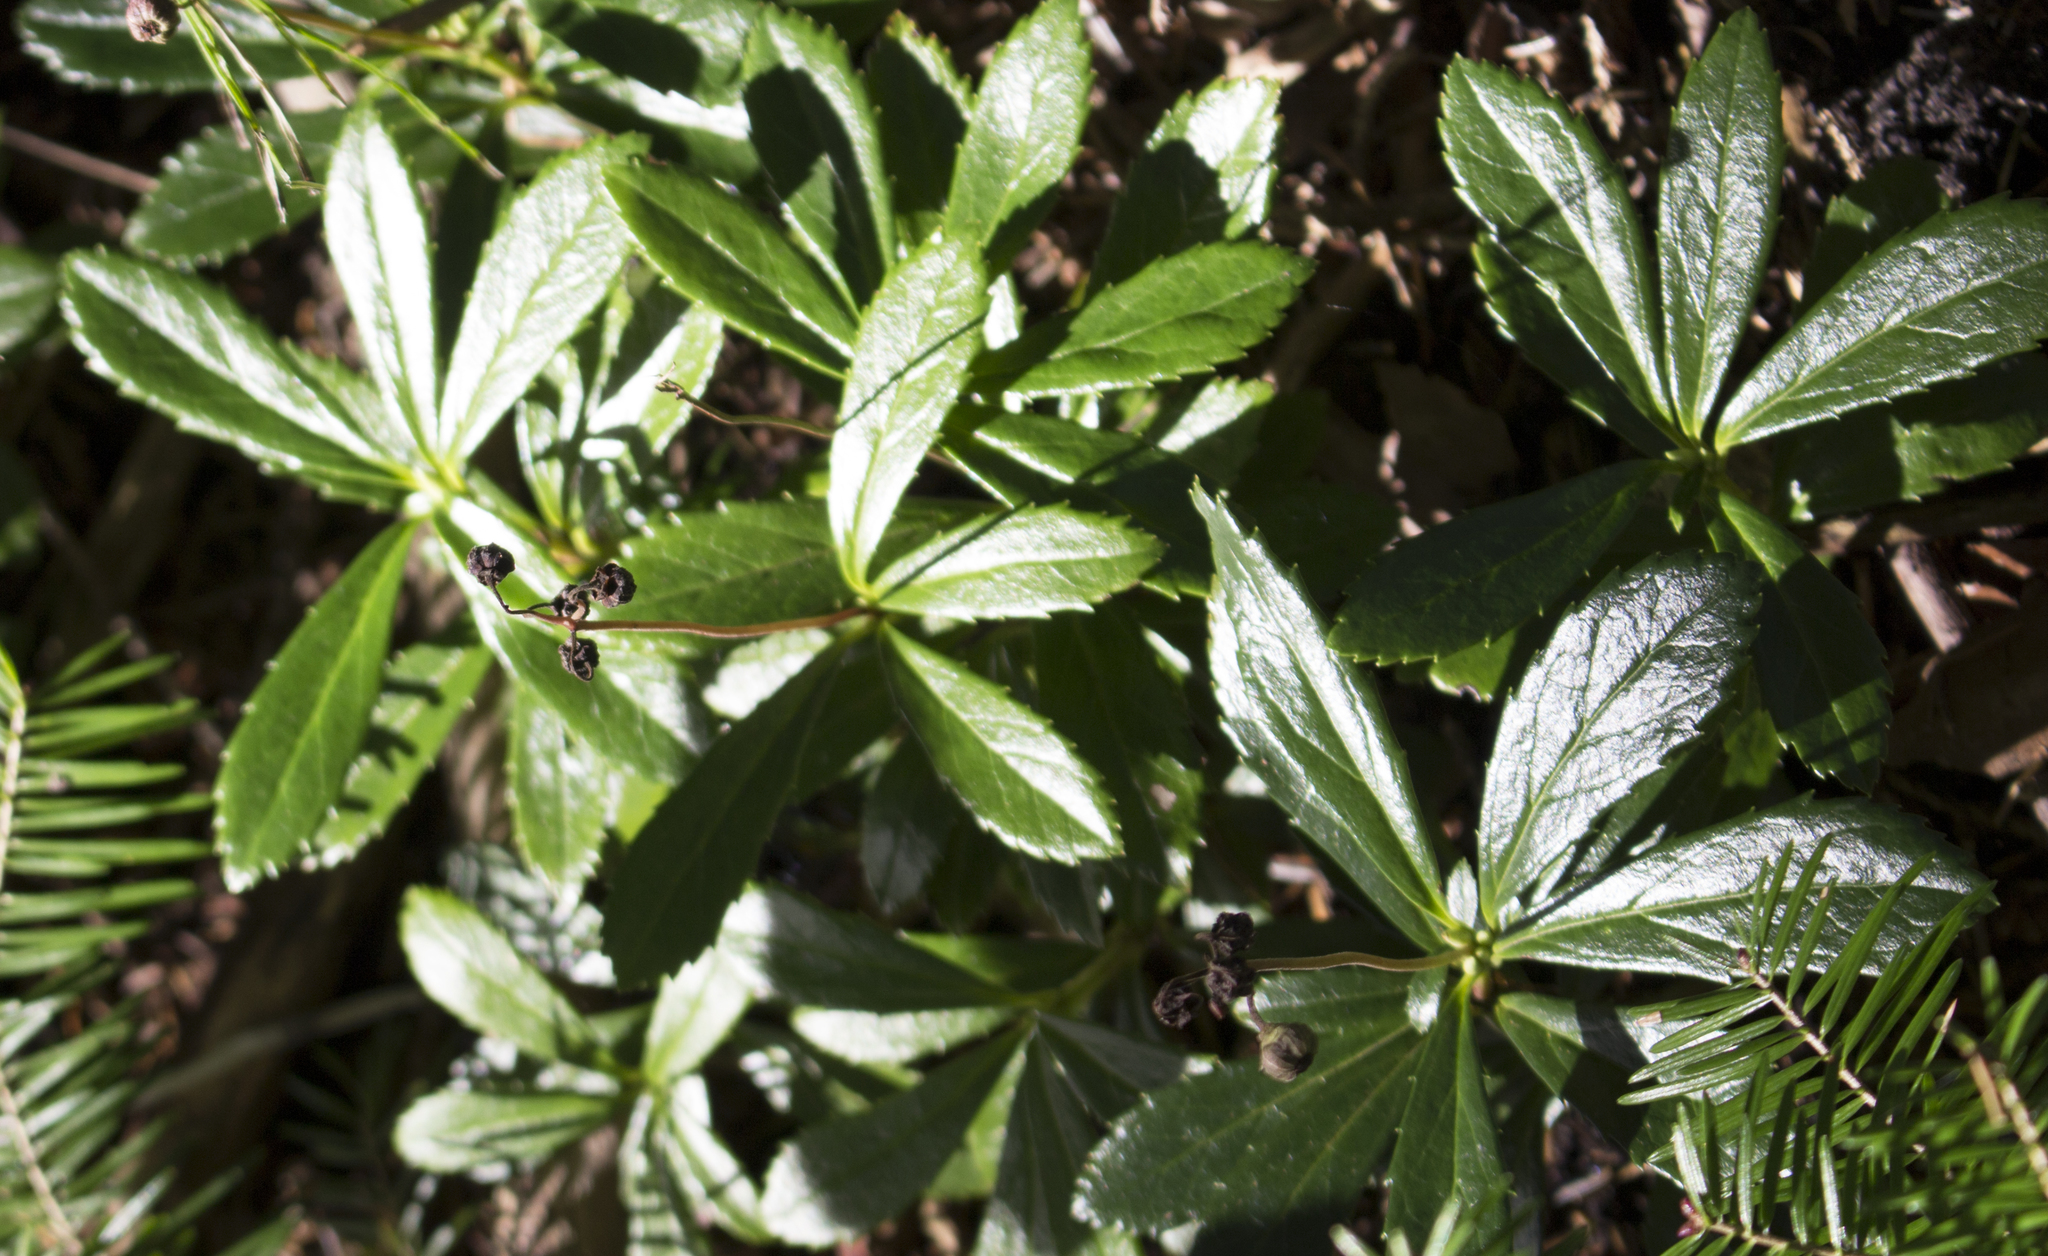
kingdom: Plantae
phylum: Tracheophyta
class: Magnoliopsida
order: Ericales
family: Ericaceae
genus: Chimaphila
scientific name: Chimaphila umbellata
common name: Pipsissewa
